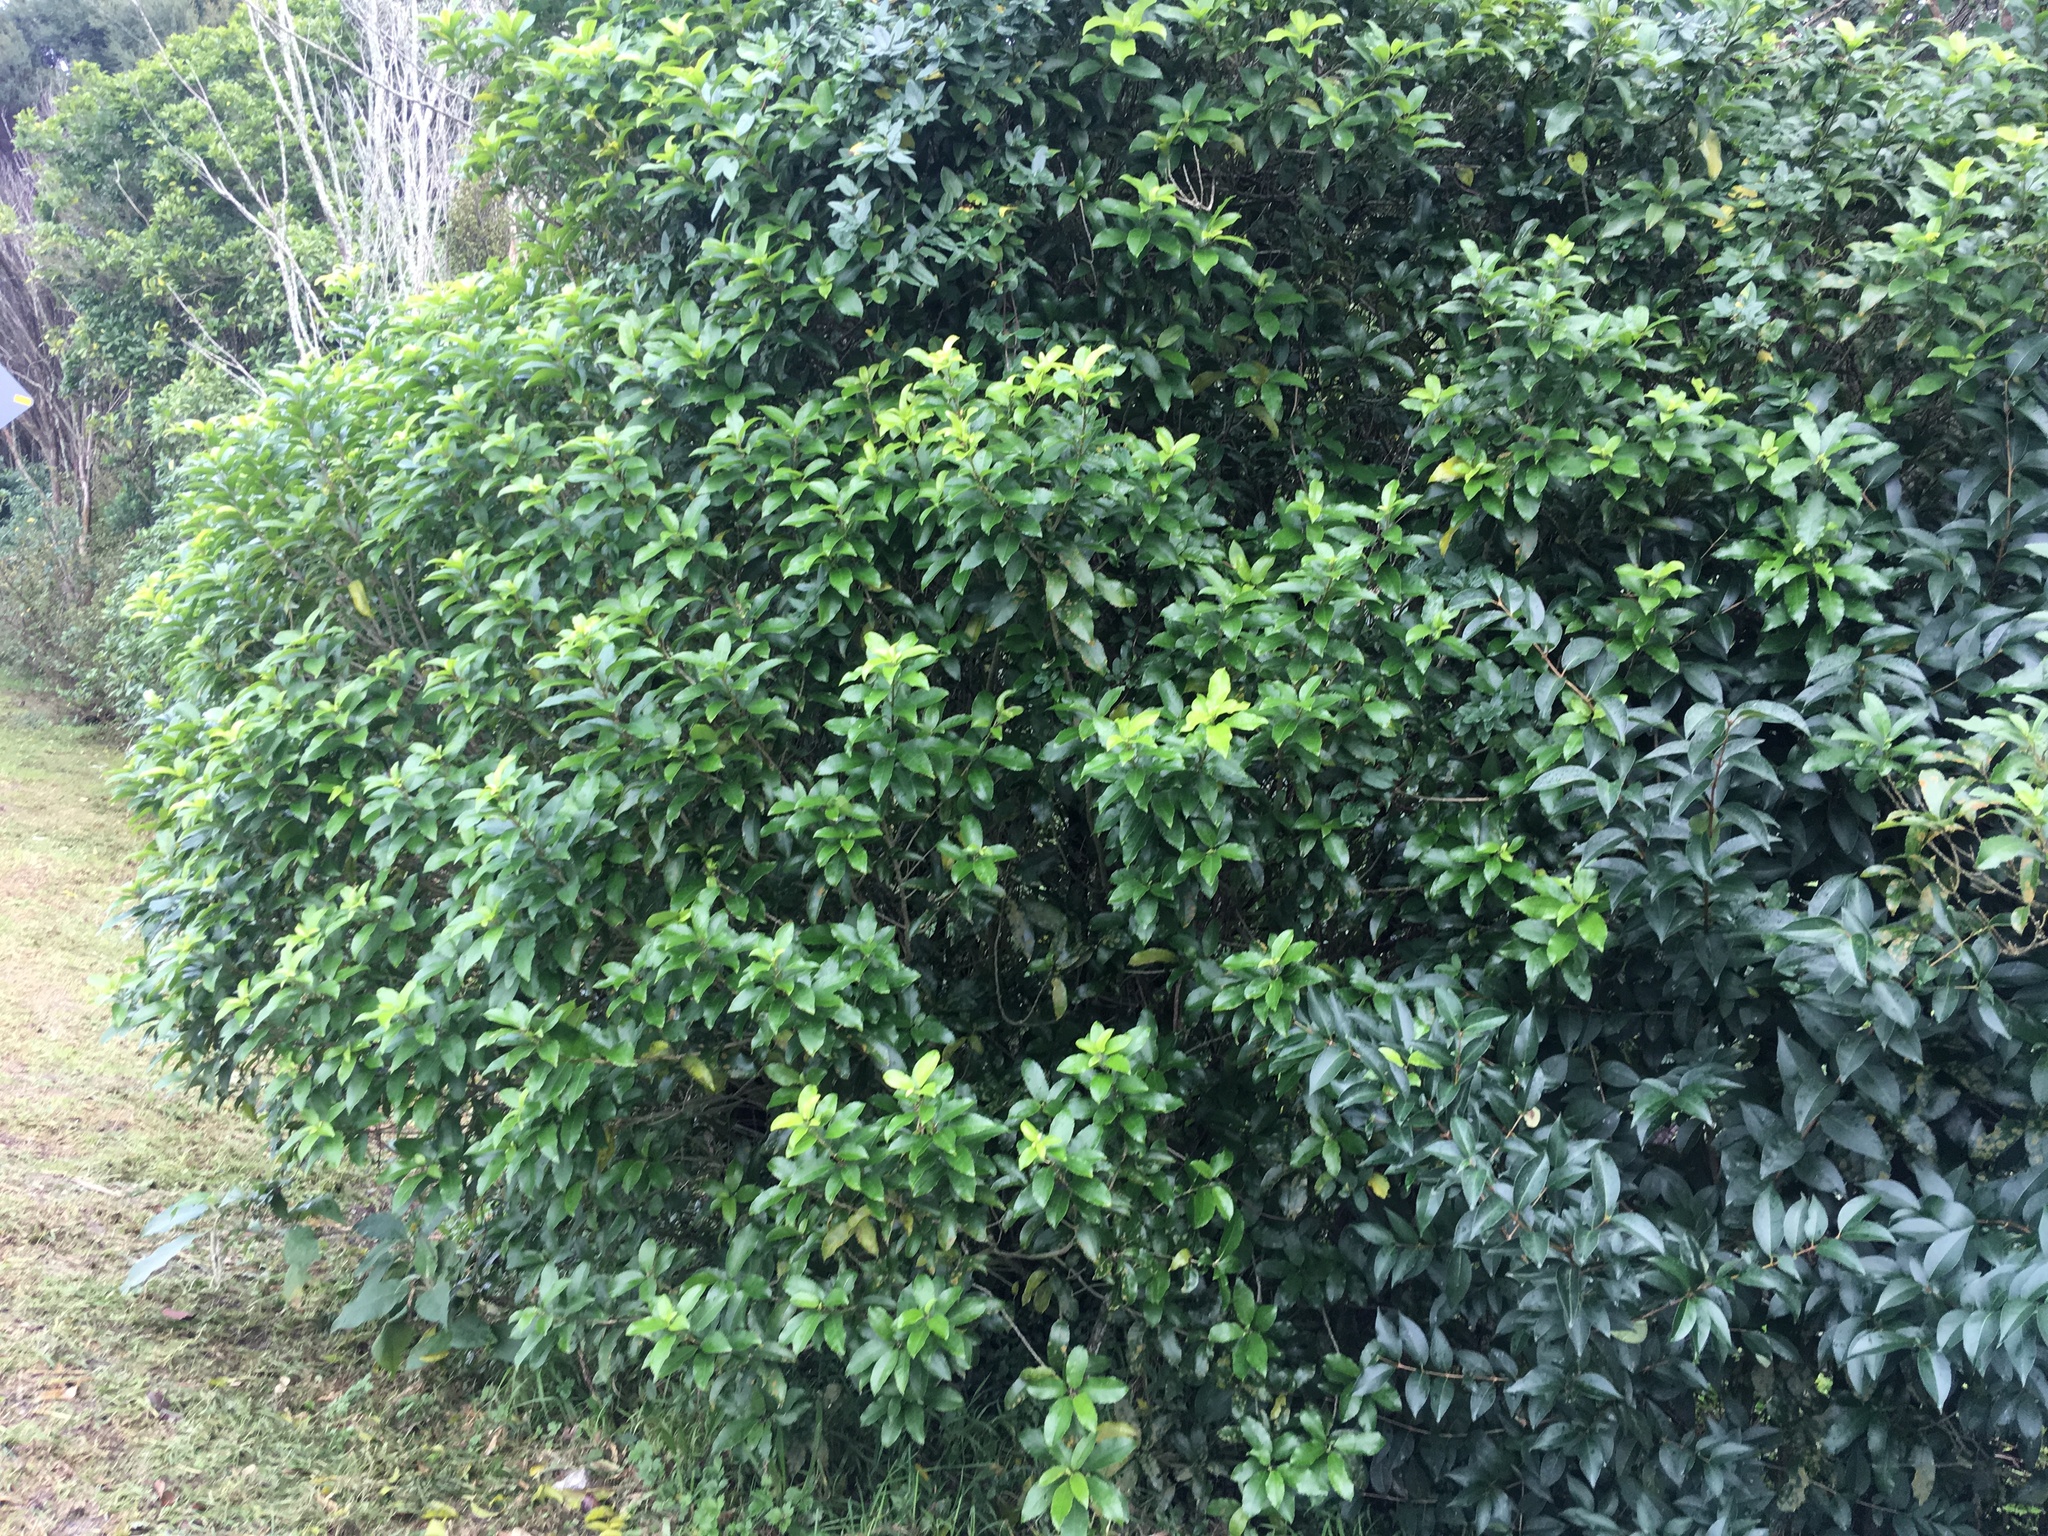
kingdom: Plantae
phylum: Tracheophyta
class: Magnoliopsida
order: Lamiales
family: Oleaceae
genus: Ligustrum
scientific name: Ligustrum lucidum
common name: Glossy privet
